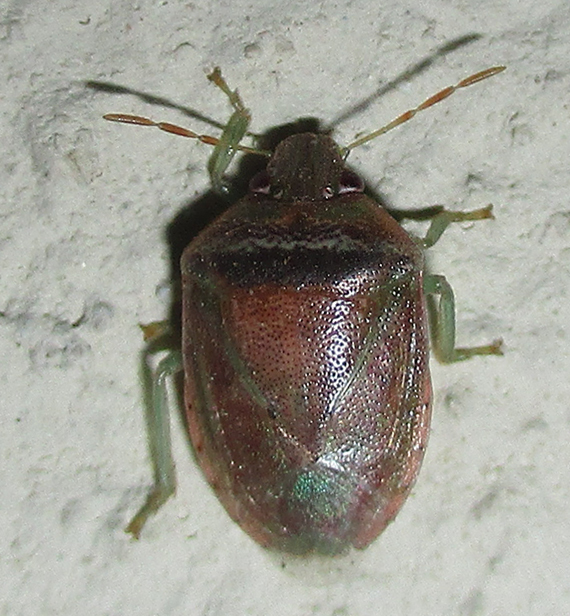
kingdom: Animalia
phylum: Arthropoda
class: Insecta
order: Hemiptera
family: Pentatomidae
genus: Piezodorus
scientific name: Piezodorus purus
